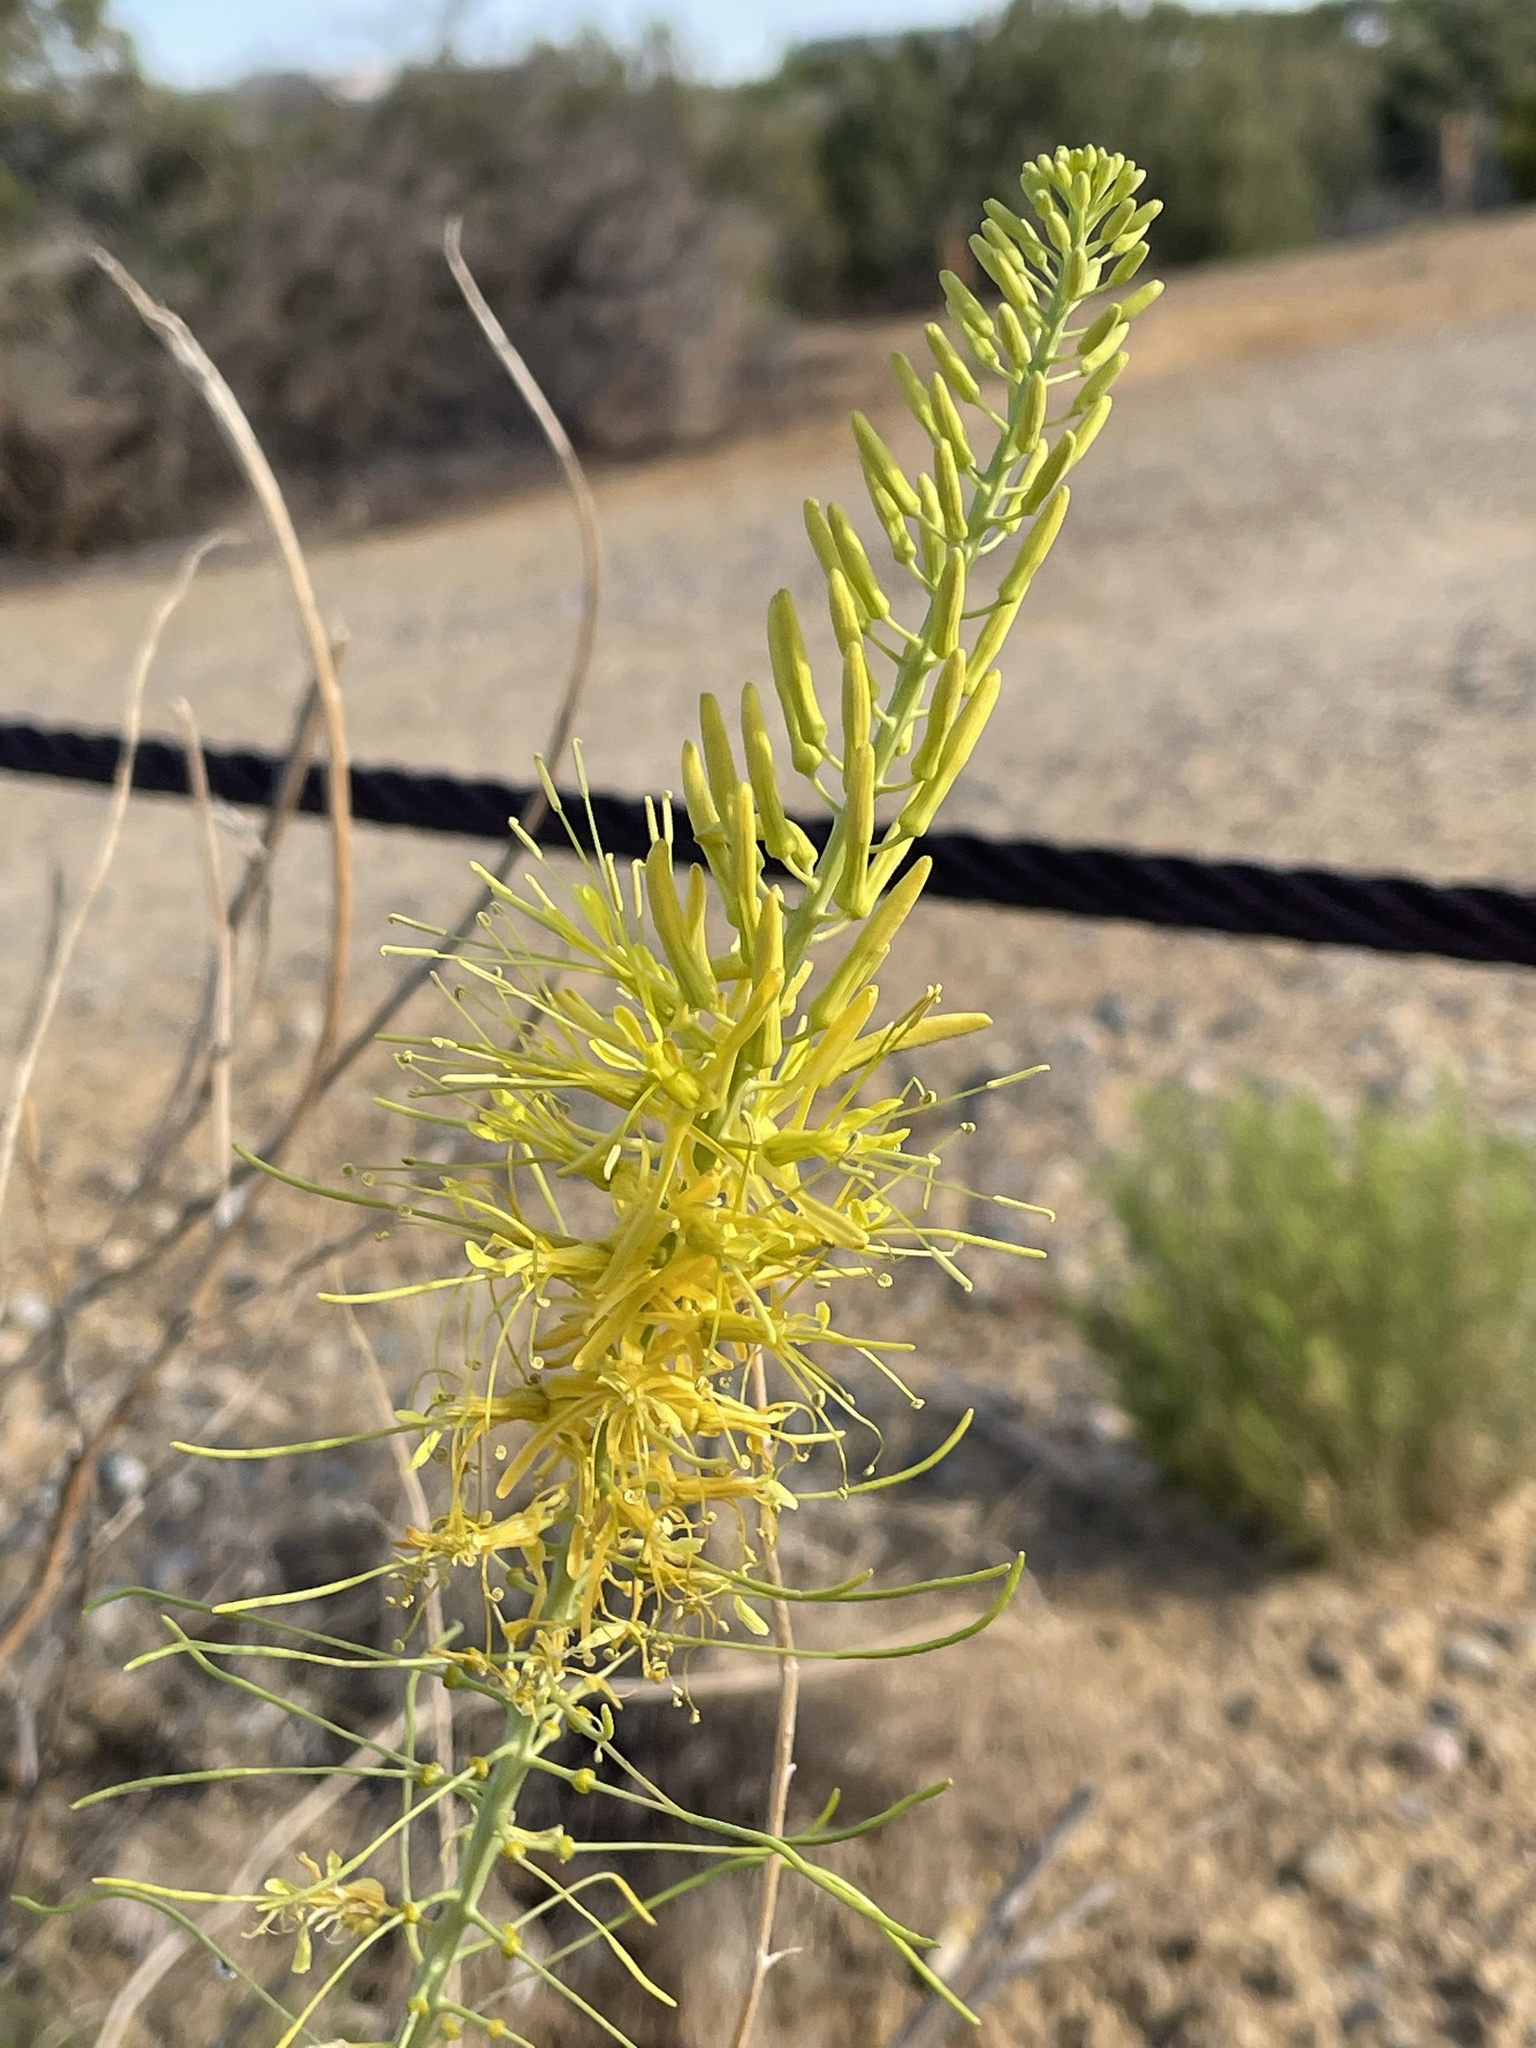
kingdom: Plantae
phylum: Tracheophyta
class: Magnoliopsida
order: Brassicales
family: Brassicaceae
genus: Stanleya
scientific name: Stanleya pinnata
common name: Prince's-plume
